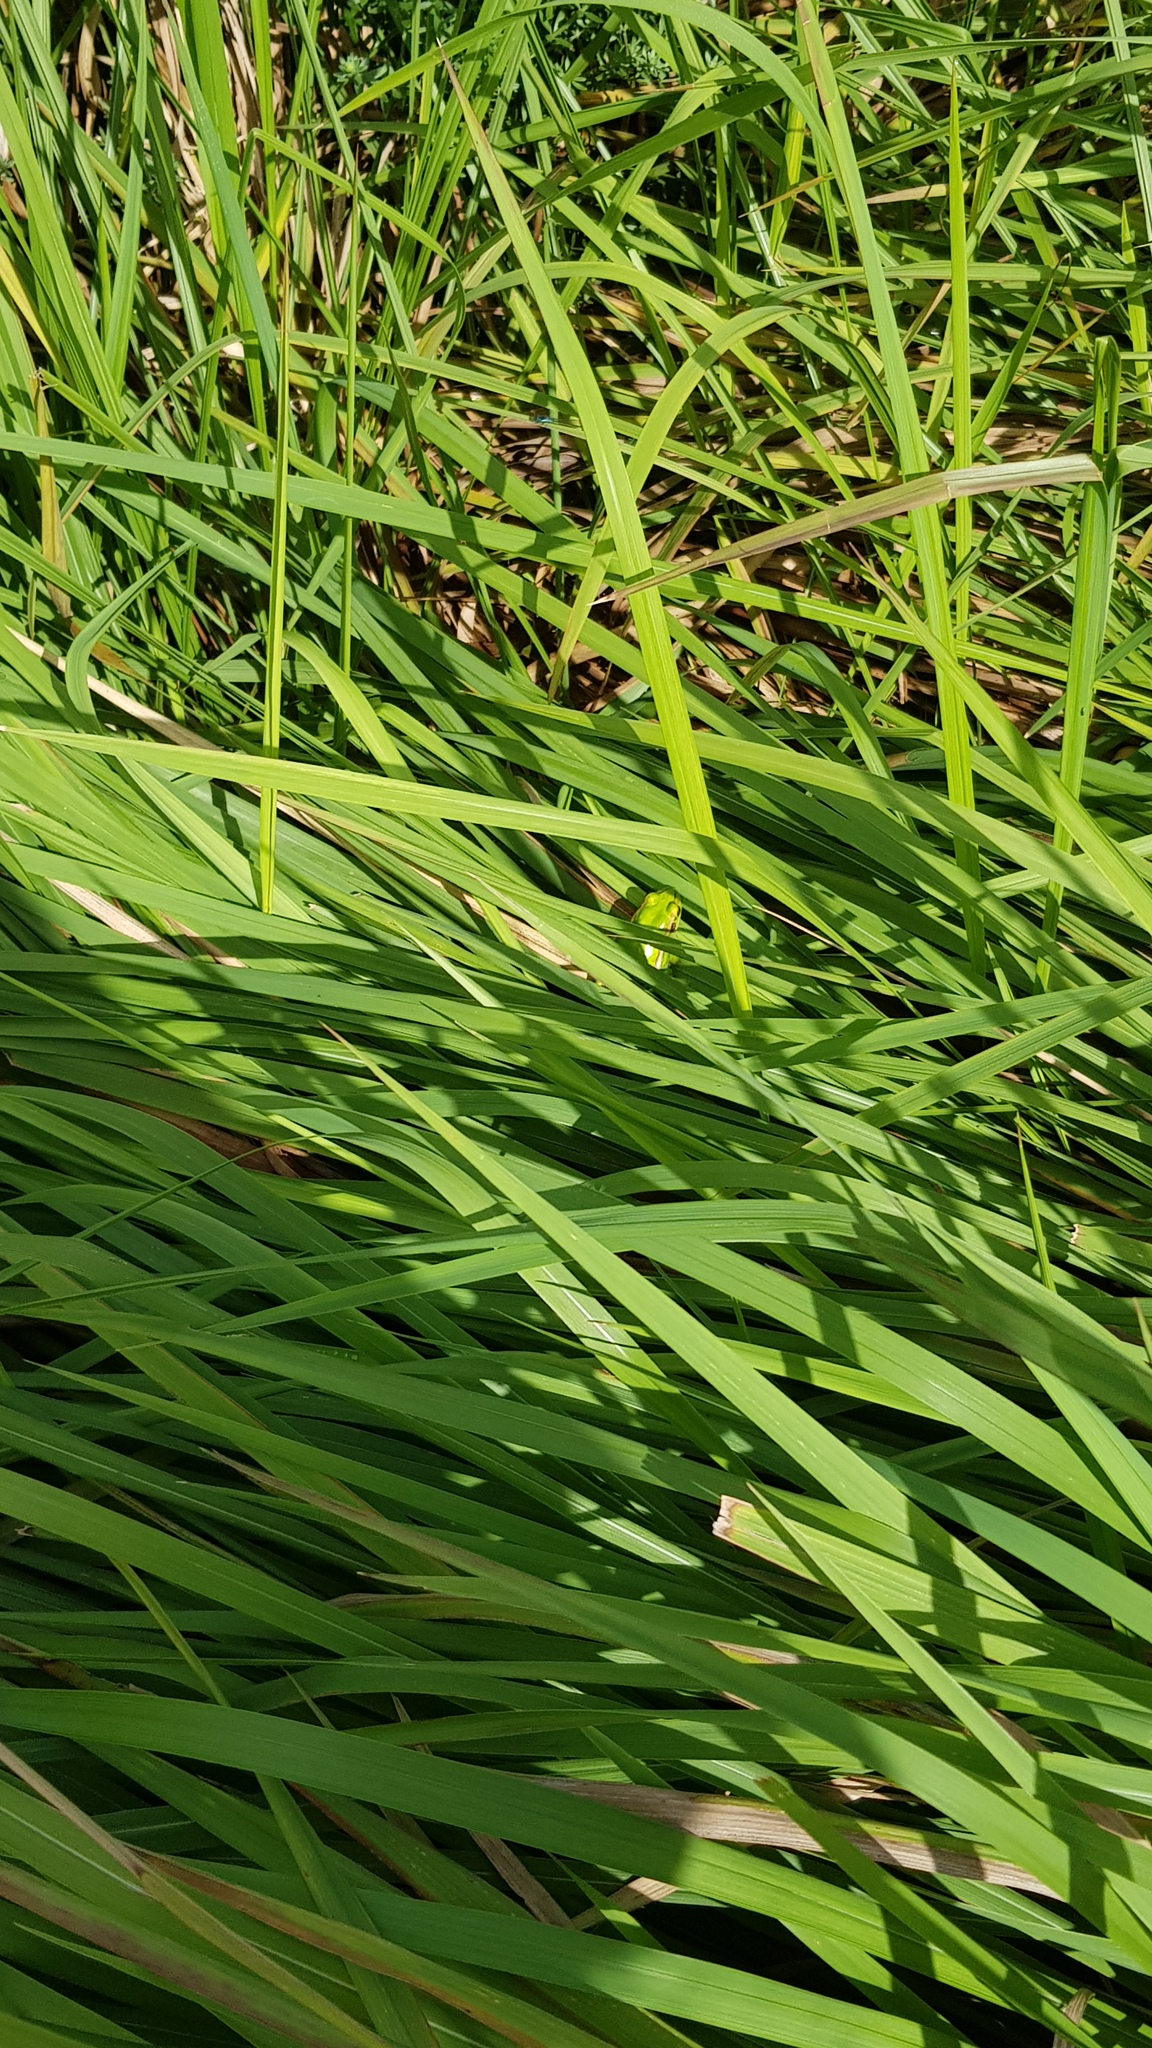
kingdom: Animalia
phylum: Chordata
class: Amphibia
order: Anura
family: Pelodryadidae
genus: Ranoidea
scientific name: Ranoidea aurea
